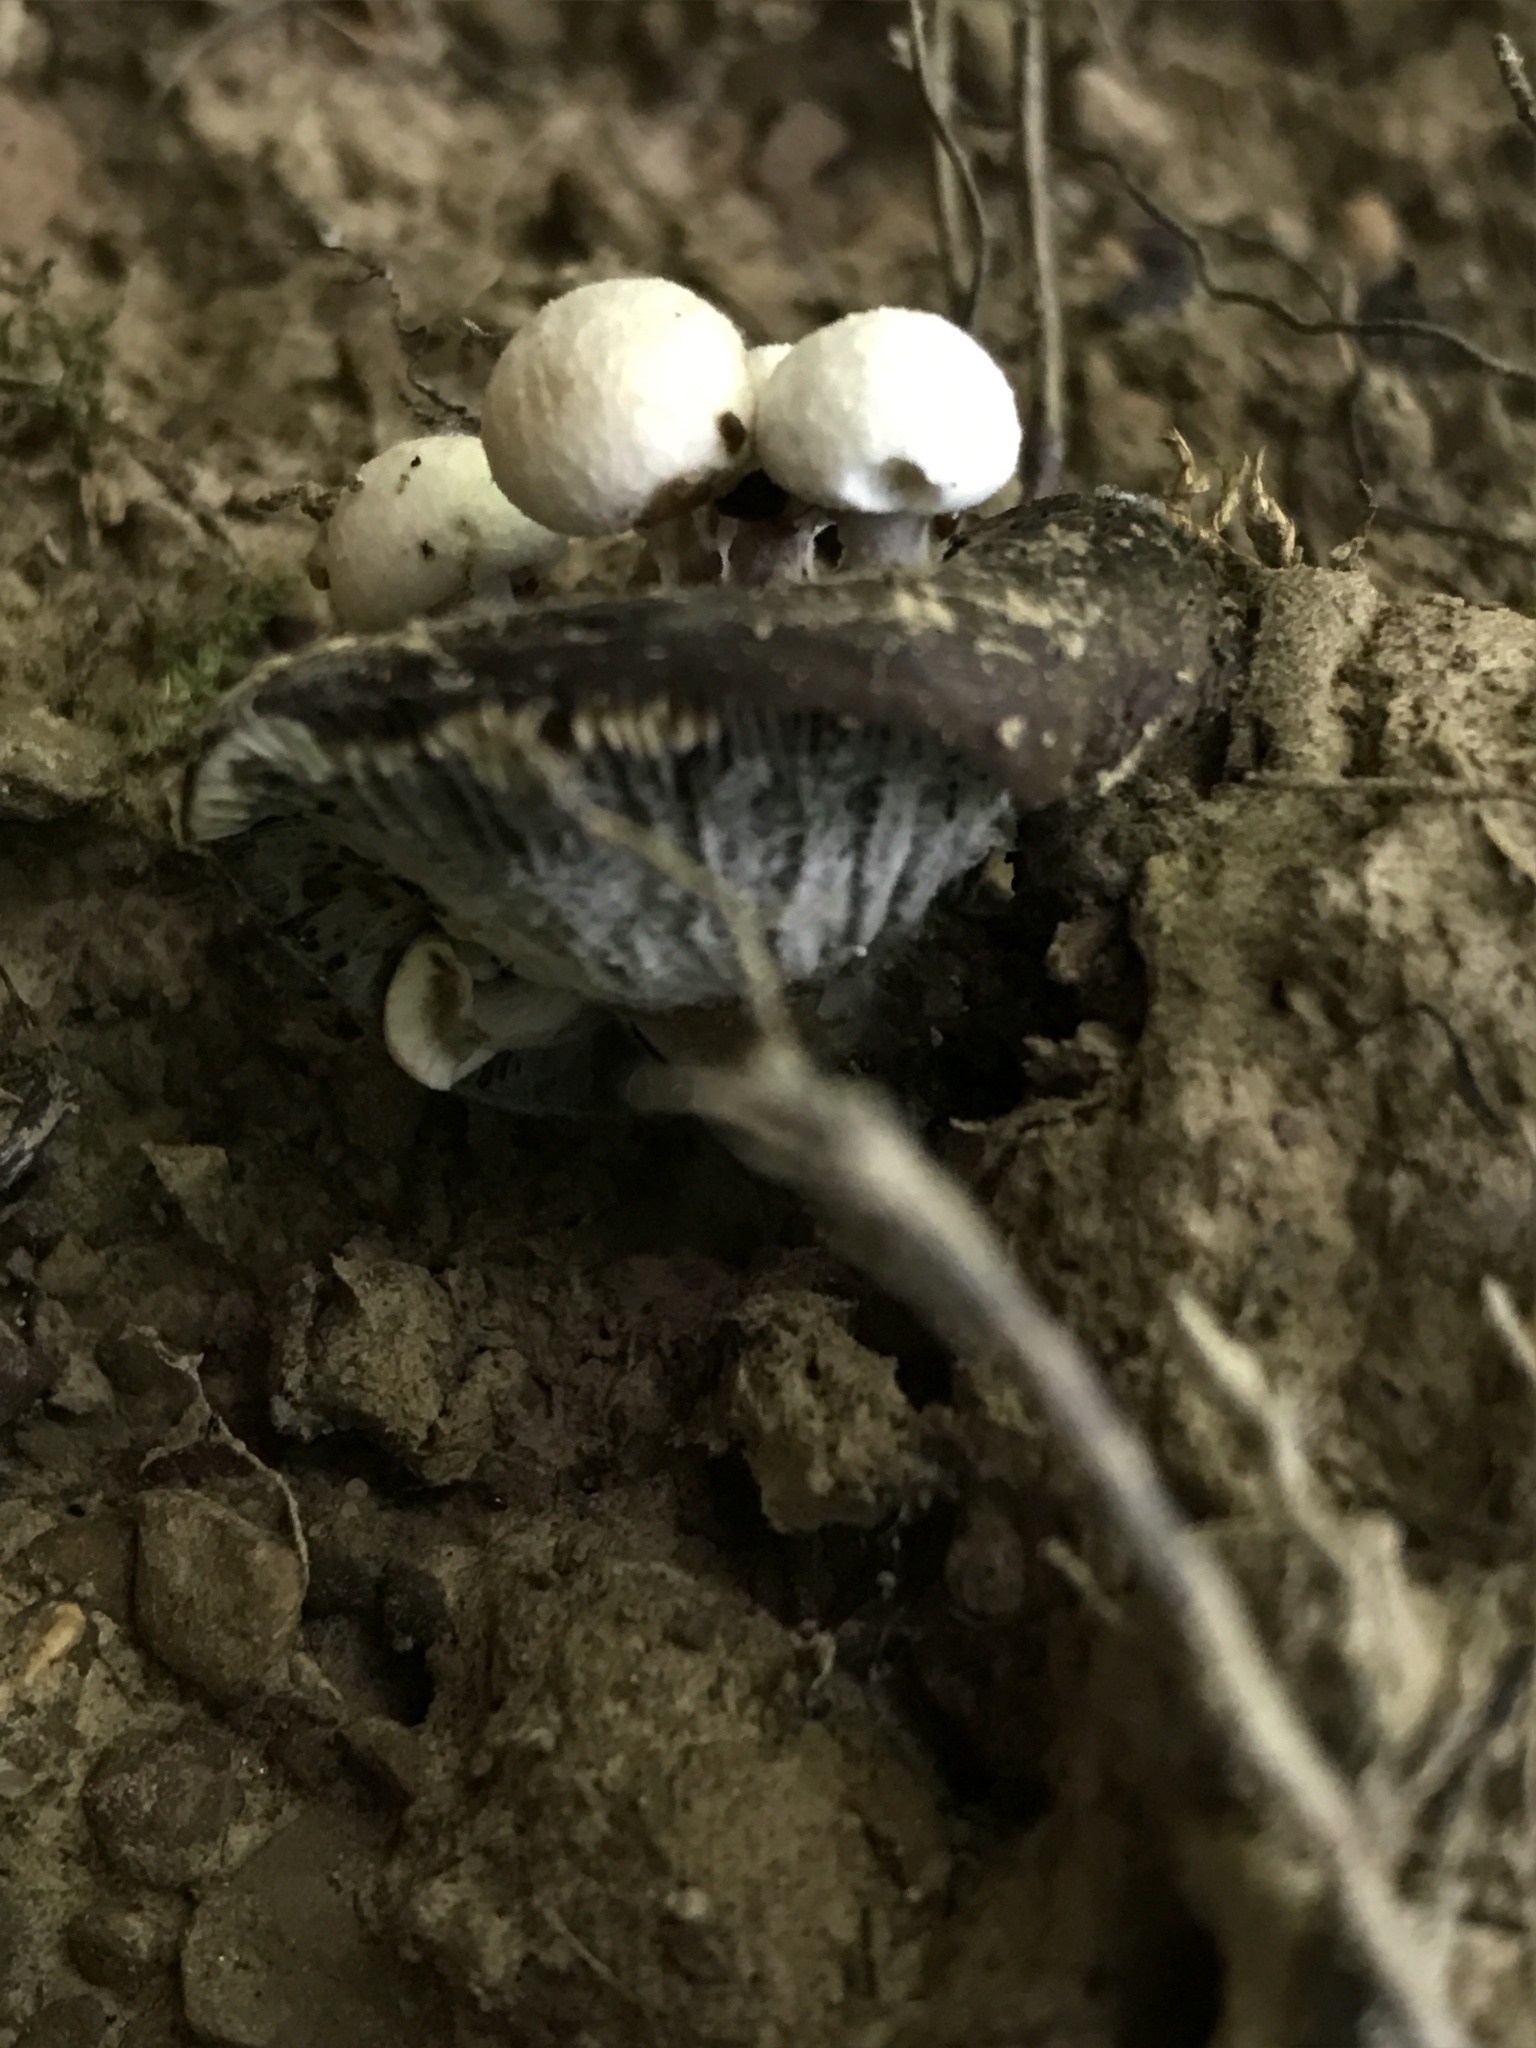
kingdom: Fungi
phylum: Basidiomycota
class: Agaricomycetes
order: Agaricales
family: Lyophyllaceae
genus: Asterophora
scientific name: Asterophora lycoperdoides
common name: Pick-a-back toadstool
